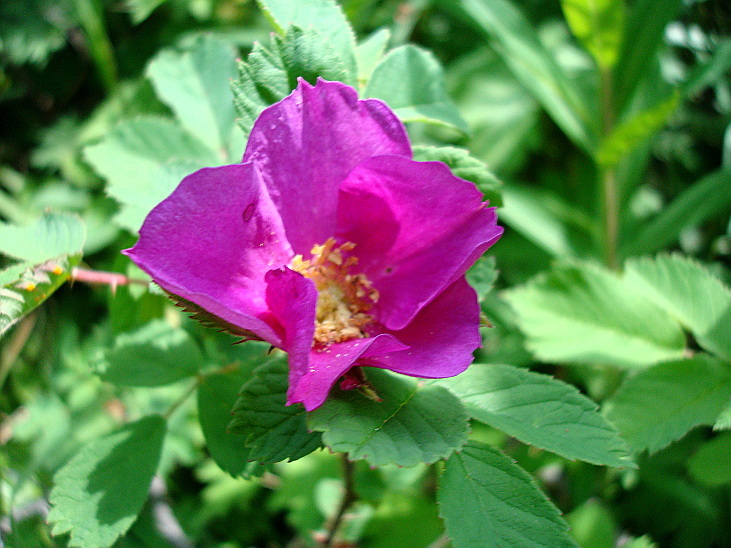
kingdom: Plantae
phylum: Tracheophyta
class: Magnoliopsida
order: Rosales
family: Rosaceae
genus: Rosa
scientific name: Rosa davurica
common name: Amur rose
